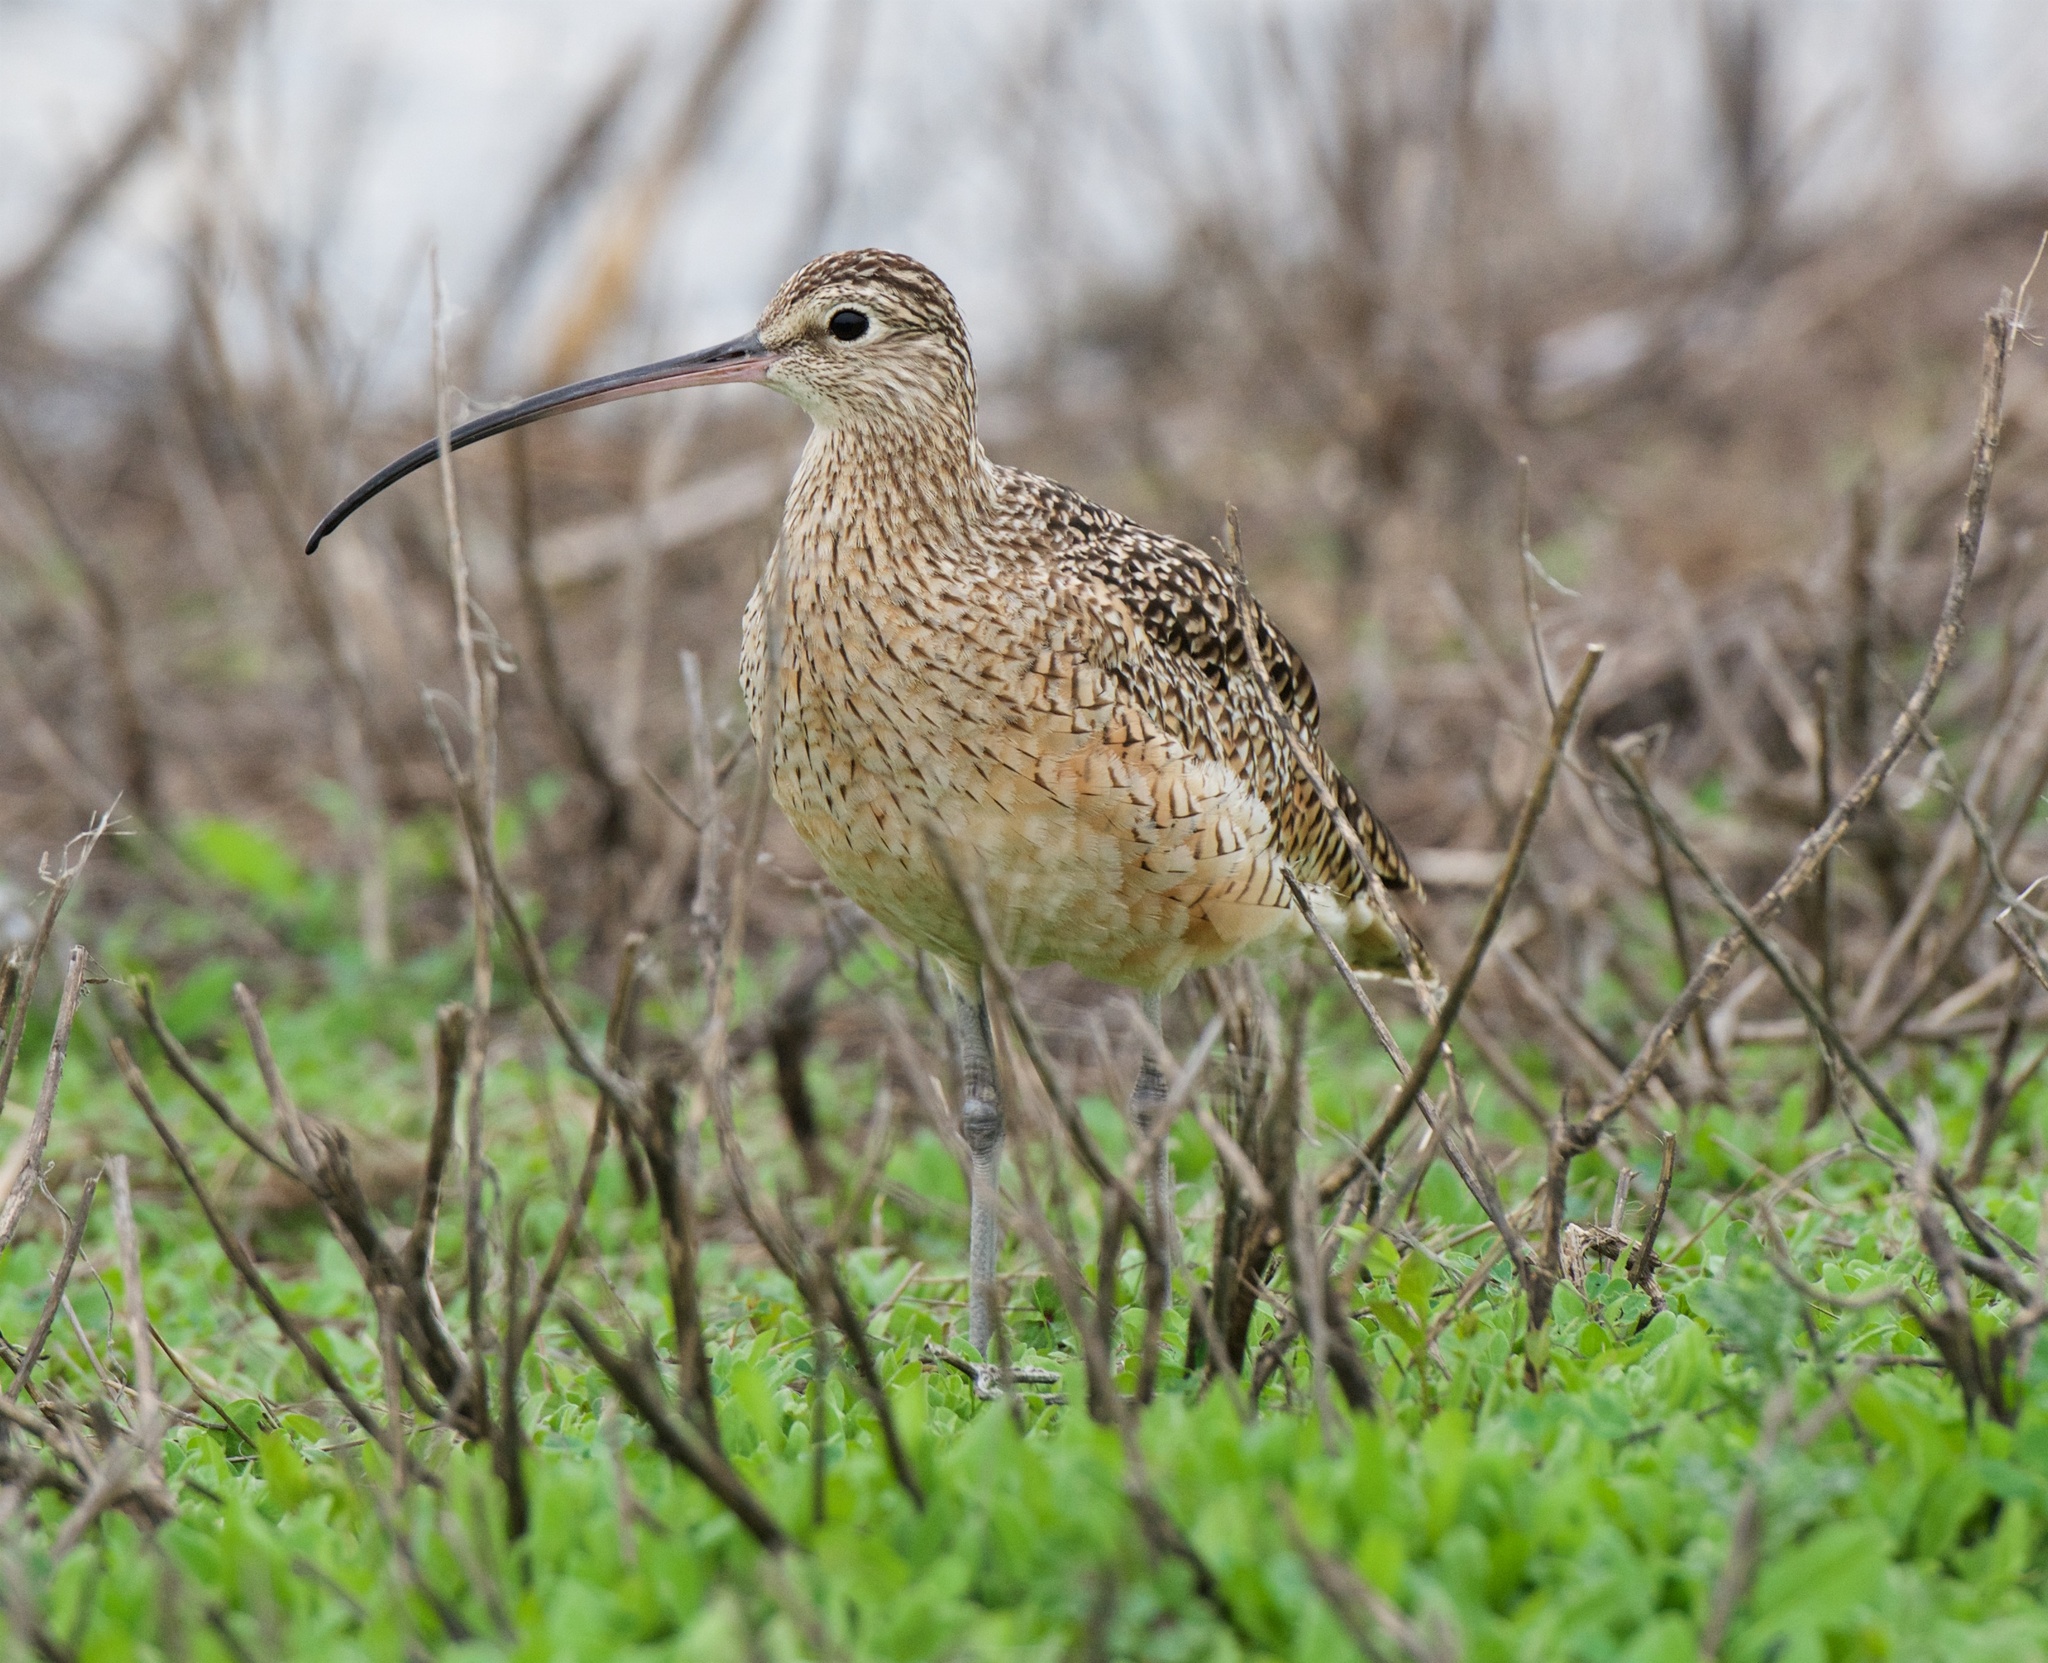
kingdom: Animalia
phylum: Chordata
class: Aves
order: Charadriiformes
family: Scolopacidae
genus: Numenius
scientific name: Numenius americanus
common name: Long-billed curlew
